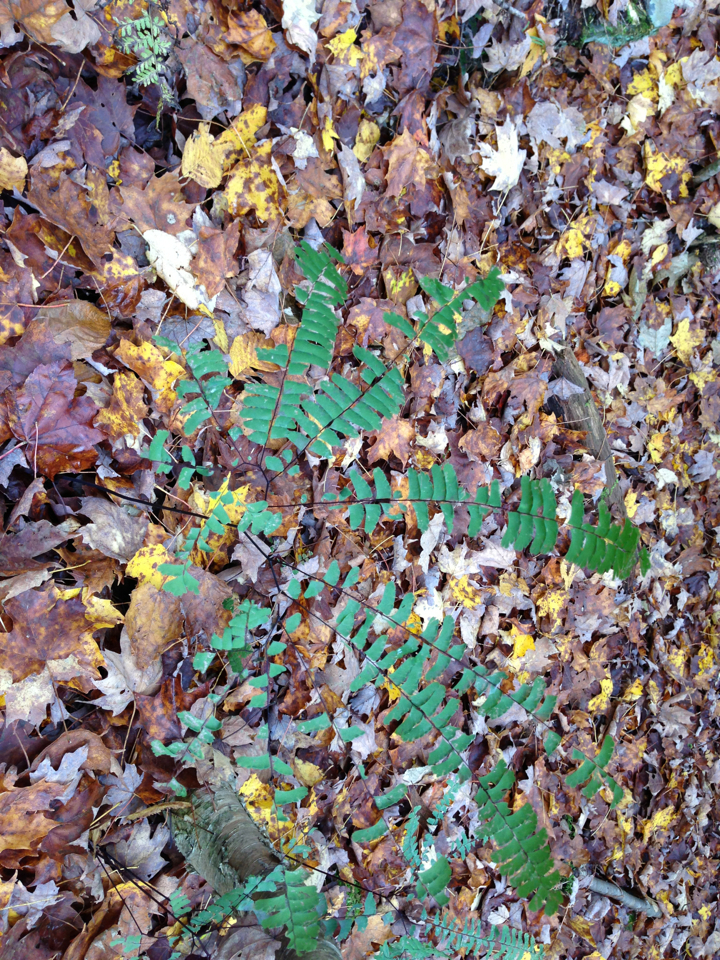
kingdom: Plantae
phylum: Tracheophyta
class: Polypodiopsida
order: Polypodiales
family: Pteridaceae
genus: Adiantum
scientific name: Adiantum pedatum
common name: Five-finger fern
